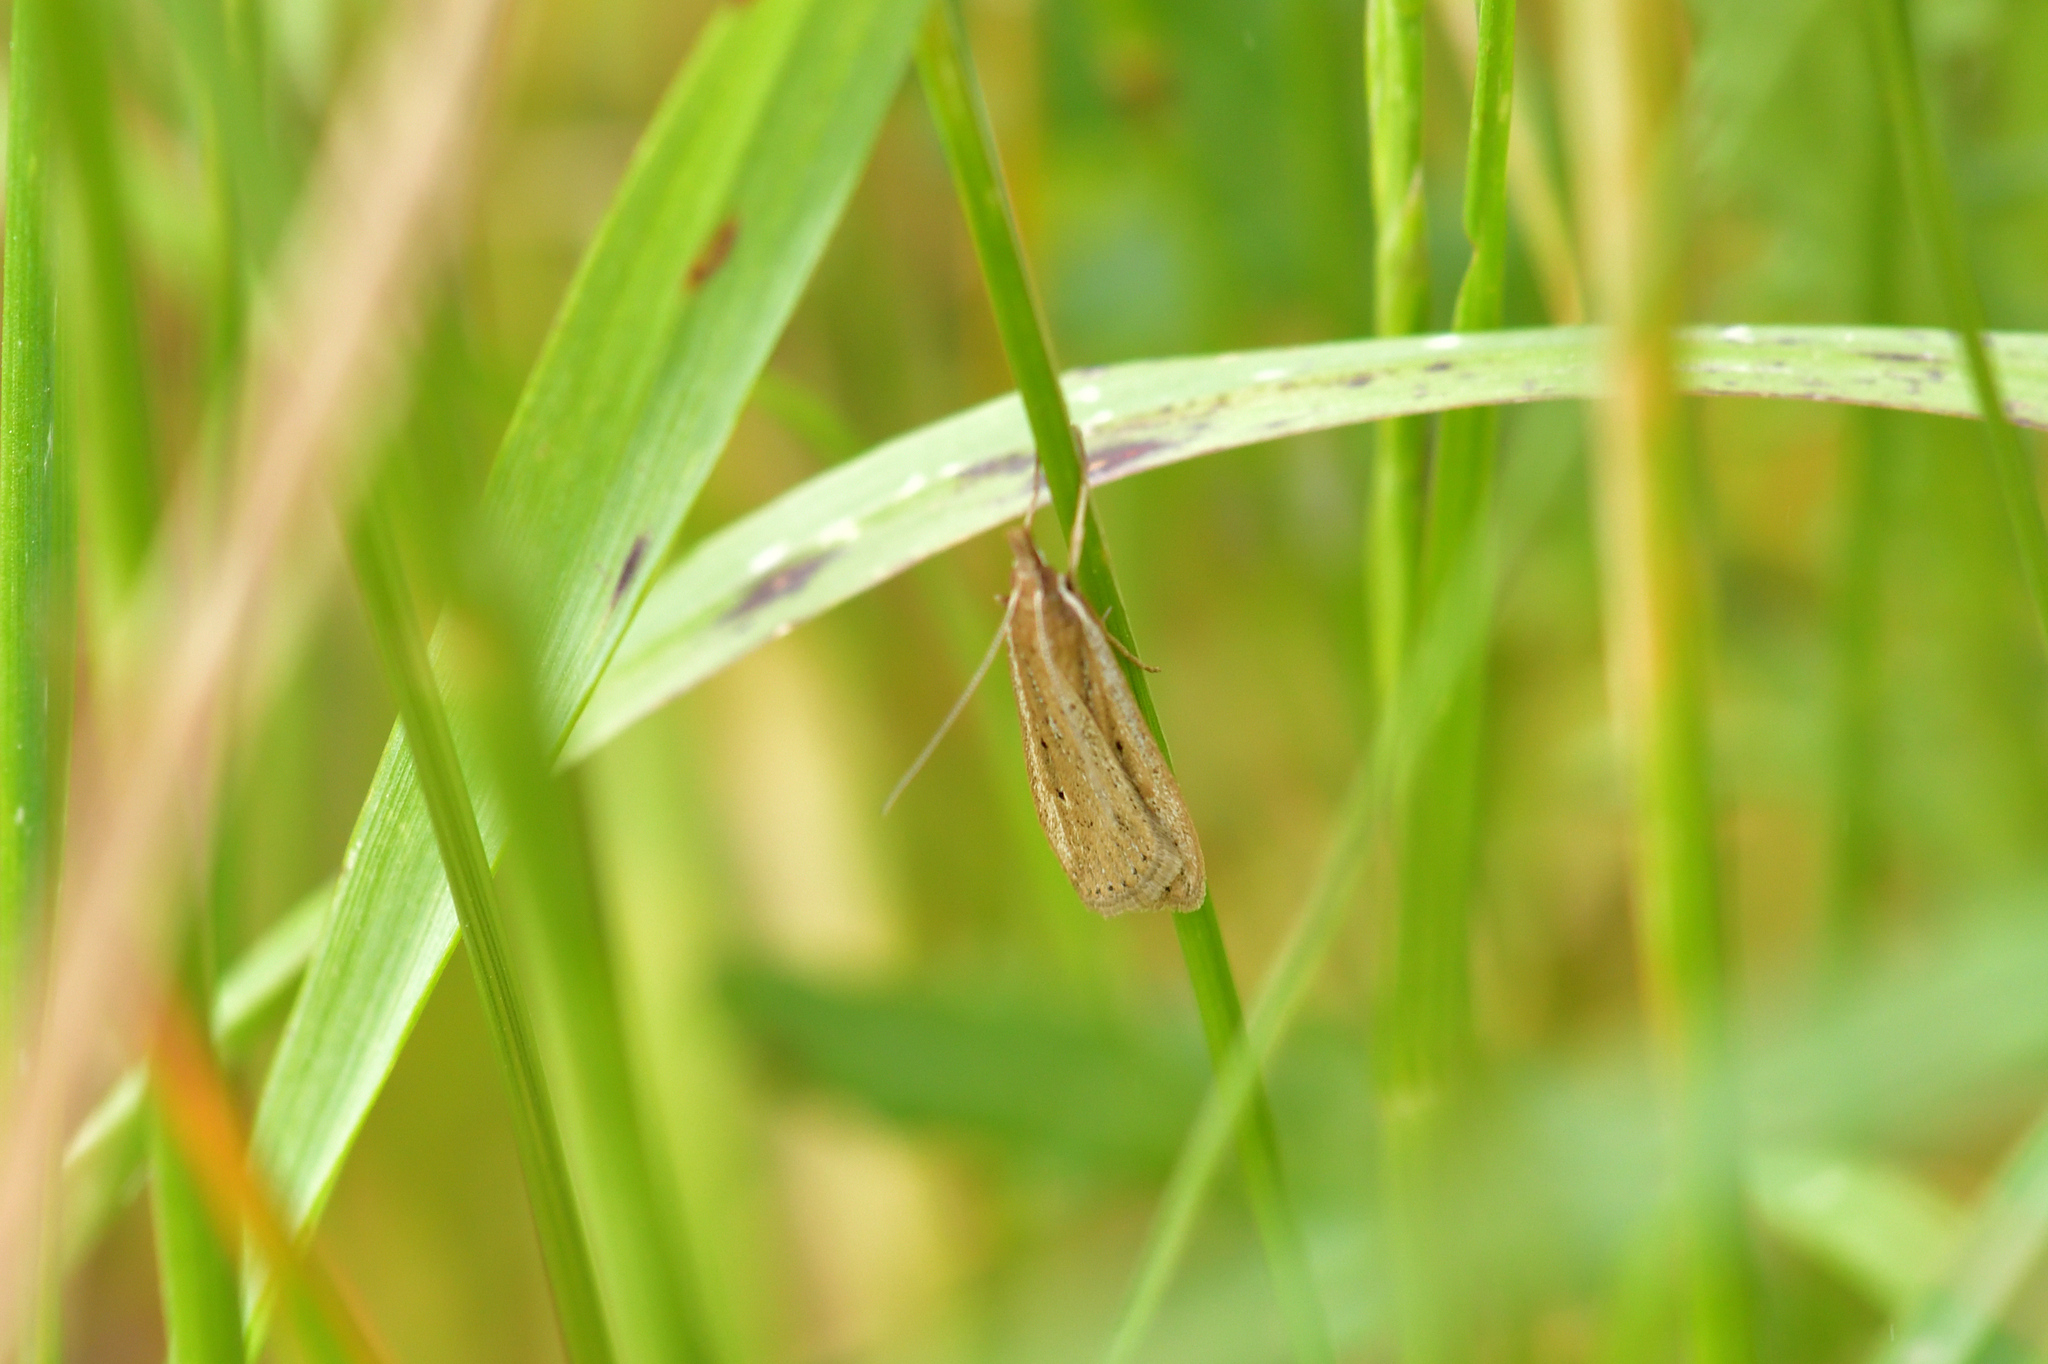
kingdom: Animalia
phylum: Arthropoda
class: Insecta
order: Lepidoptera
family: Crambidae
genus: Eudonia
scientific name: Eudonia sabulosella
